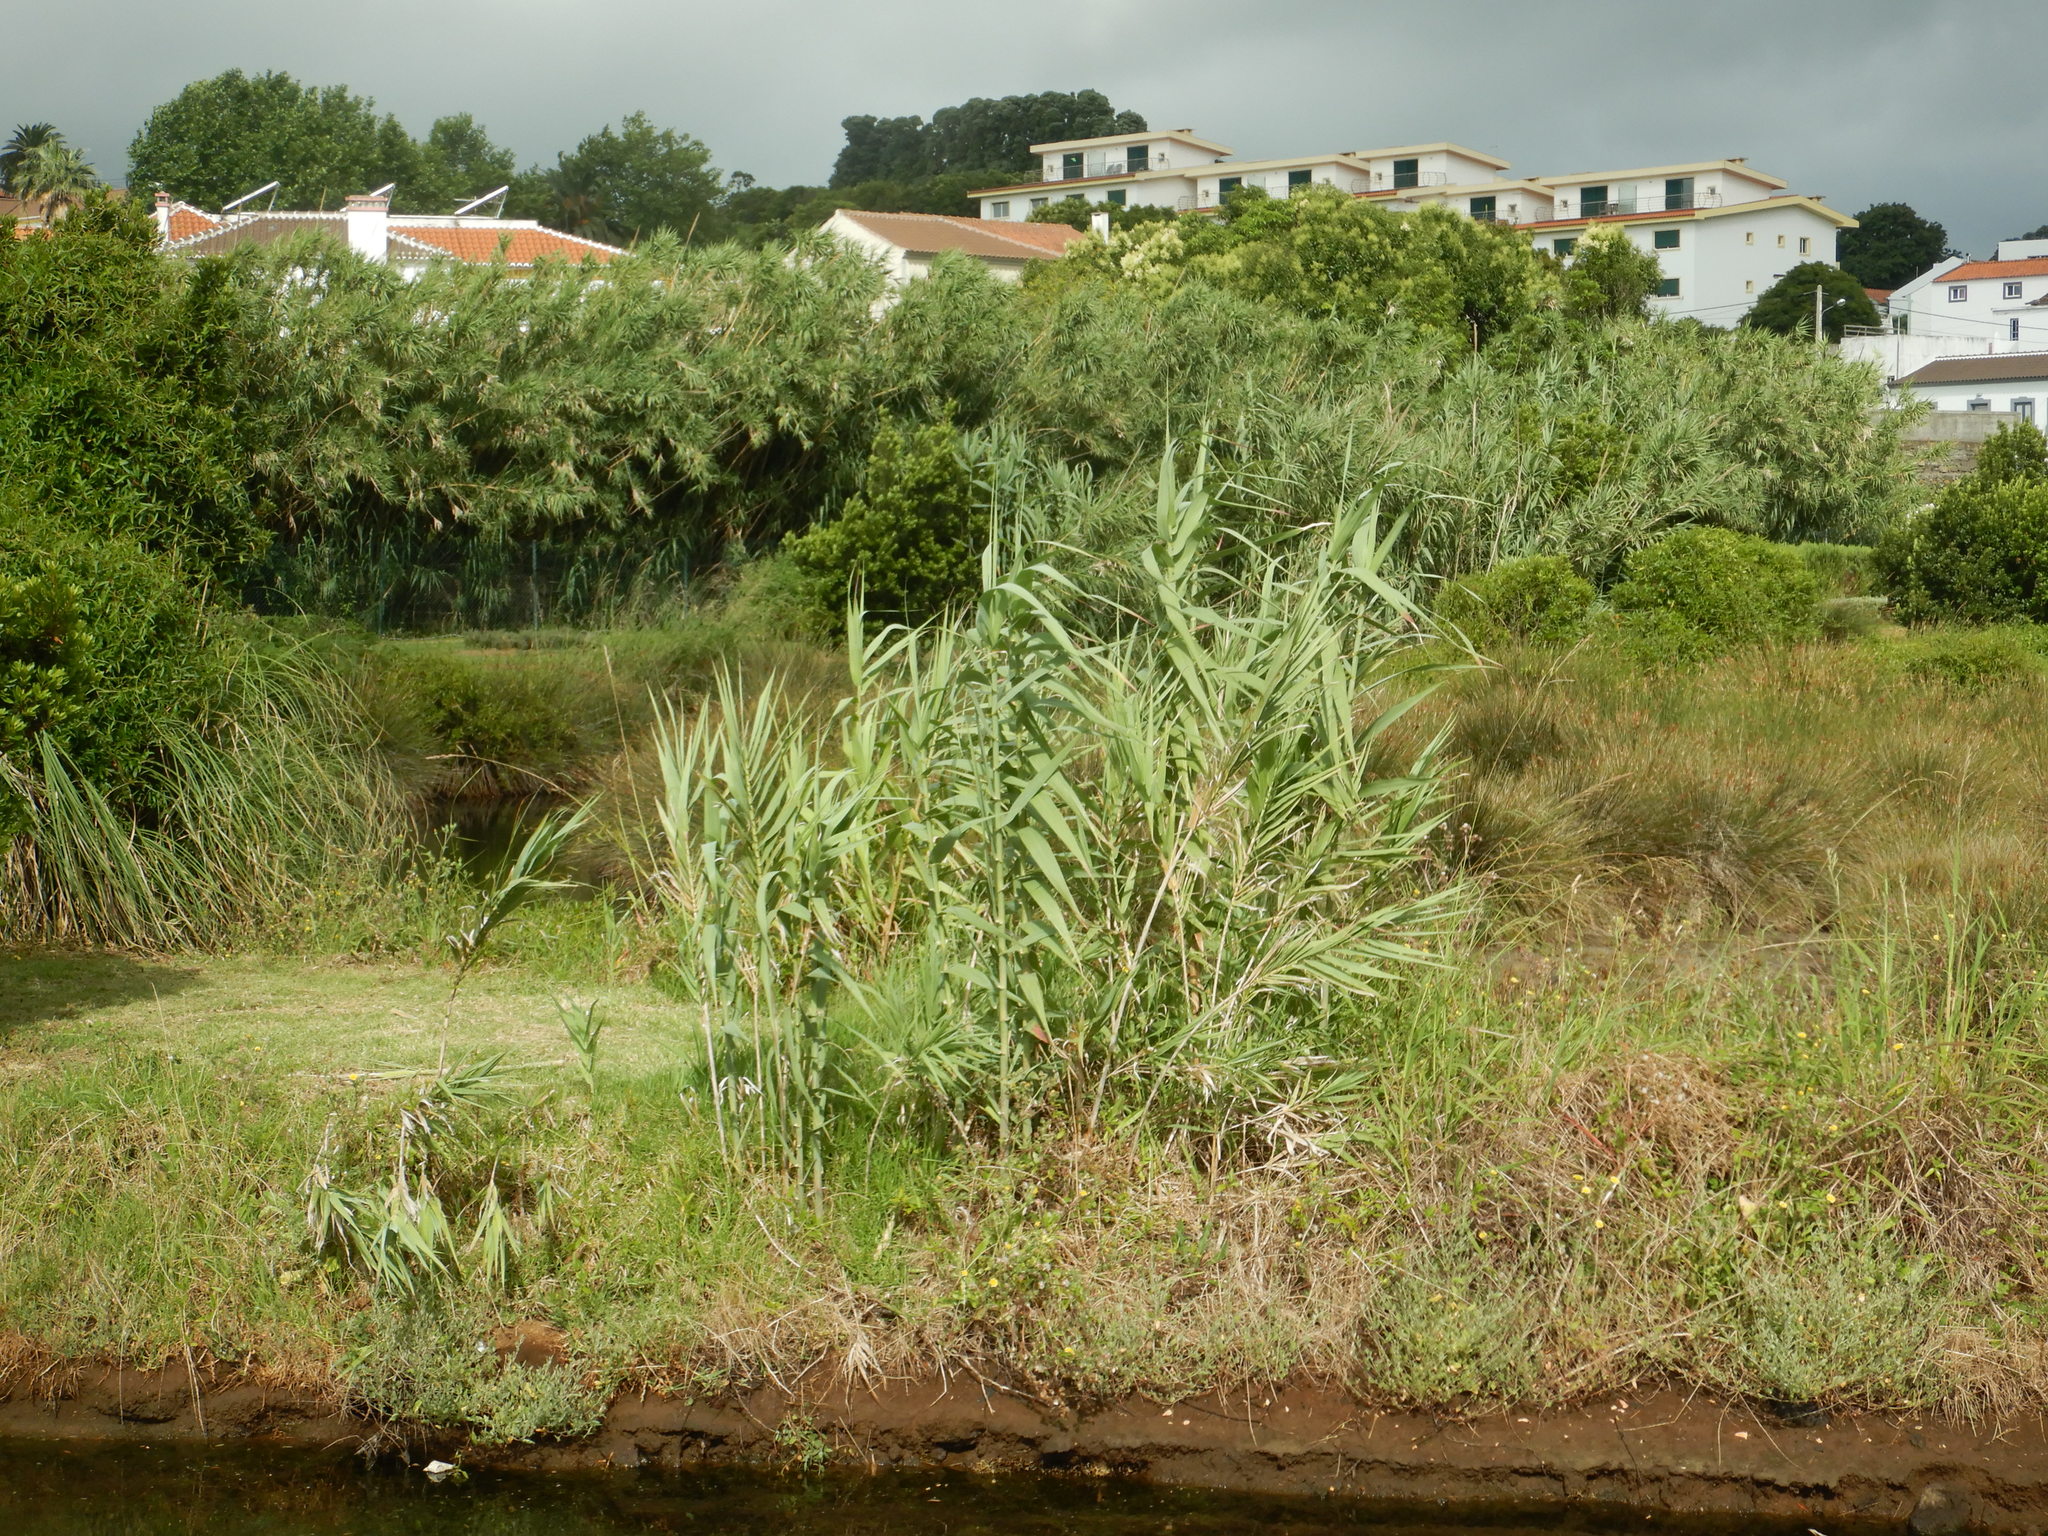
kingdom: Plantae
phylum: Tracheophyta
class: Liliopsida
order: Poales
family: Poaceae
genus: Arundo
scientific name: Arundo donax
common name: Giant reed
